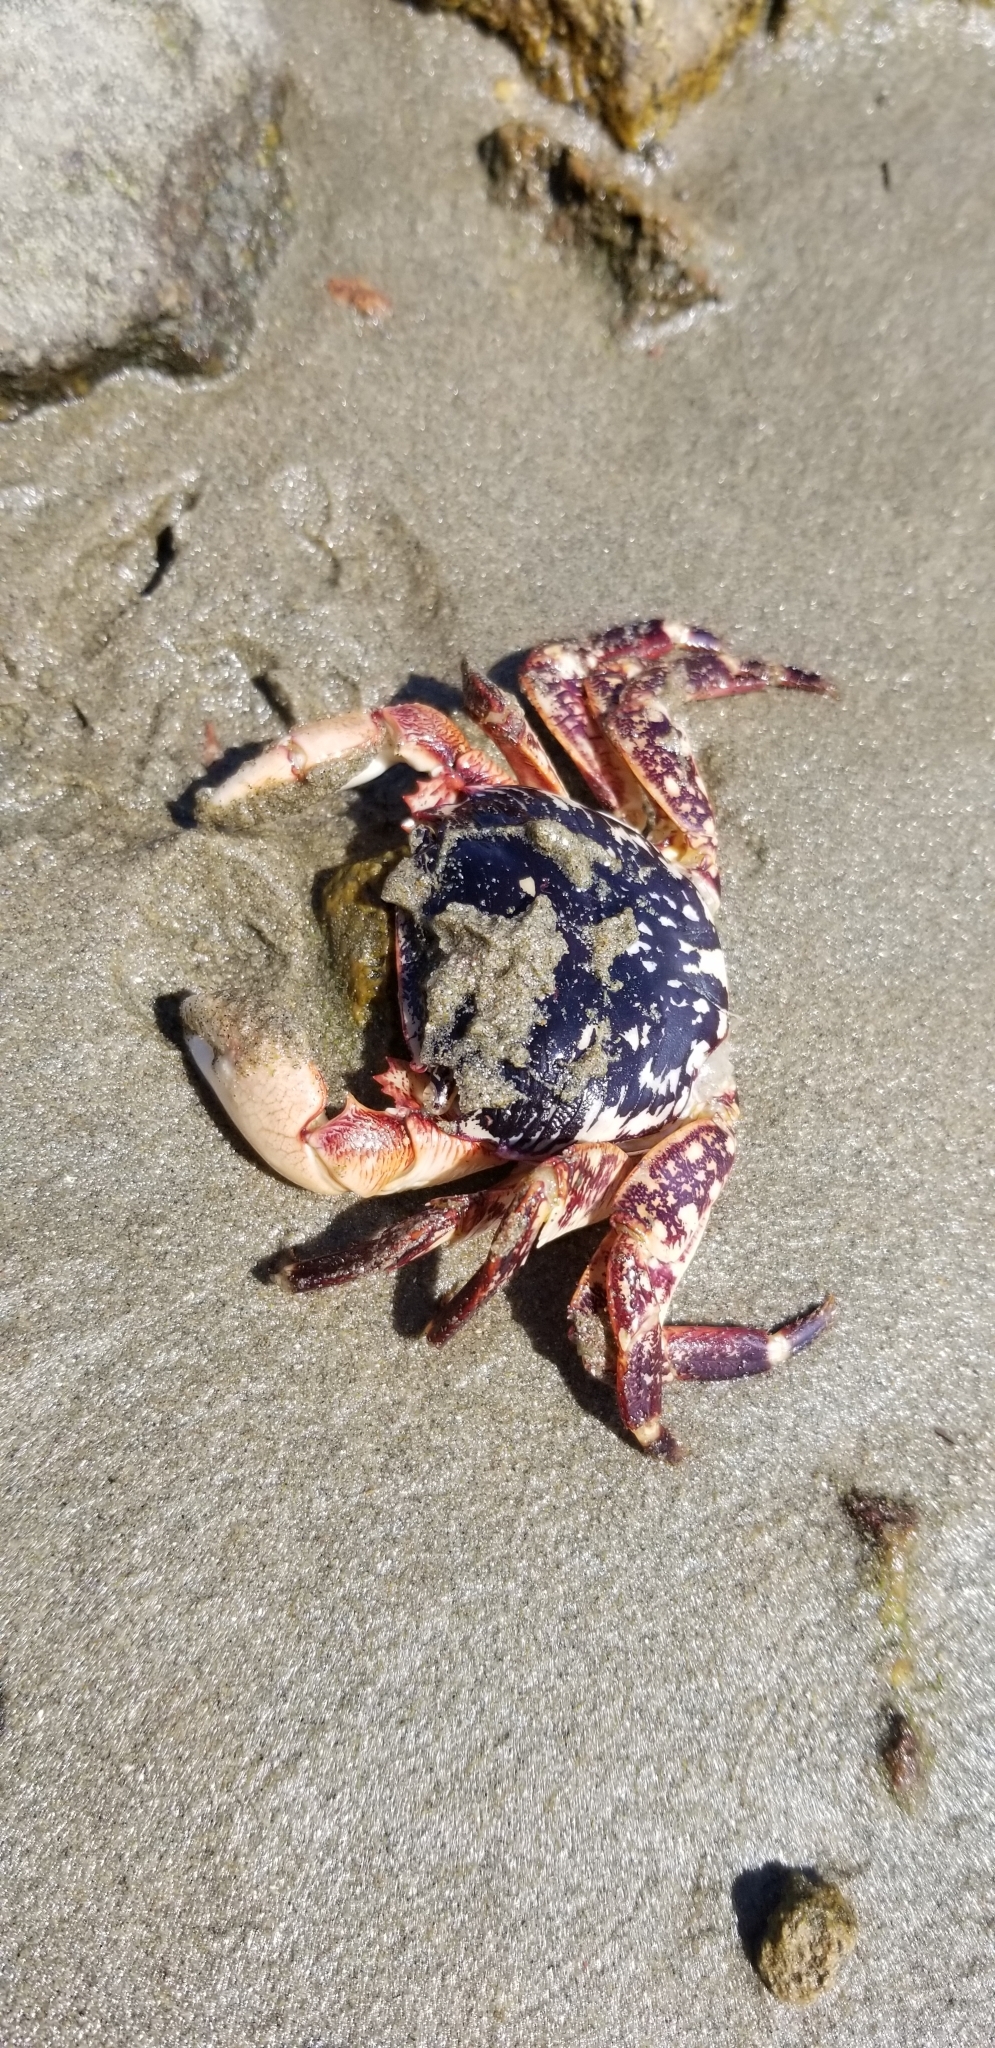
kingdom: Animalia
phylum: Arthropoda
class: Malacostraca
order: Decapoda
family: Grapsidae
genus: Pachygrapsus
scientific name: Pachygrapsus crassipes
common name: Striped shore crab
